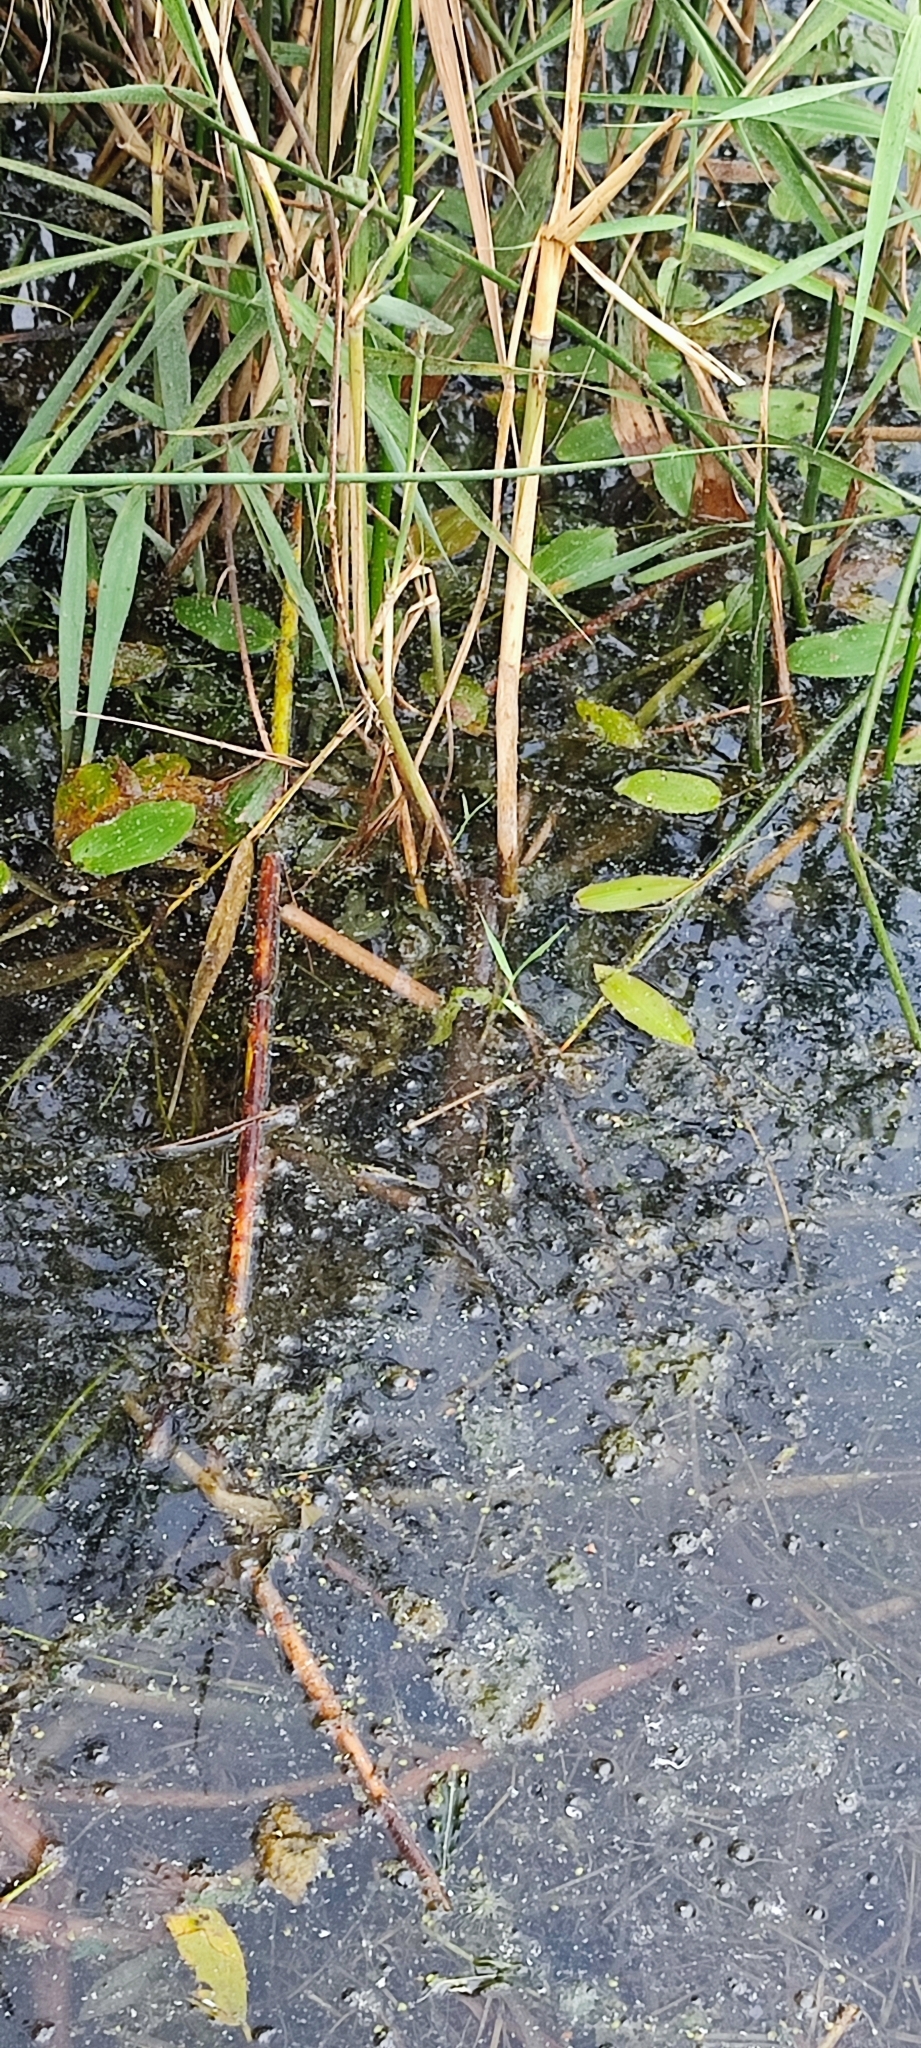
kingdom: Plantae
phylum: Tracheophyta
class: Liliopsida
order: Alismatales
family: Potamogetonaceae
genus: Potamogeton
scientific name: Potamogeton natans
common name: Broad-leaved pondweed
